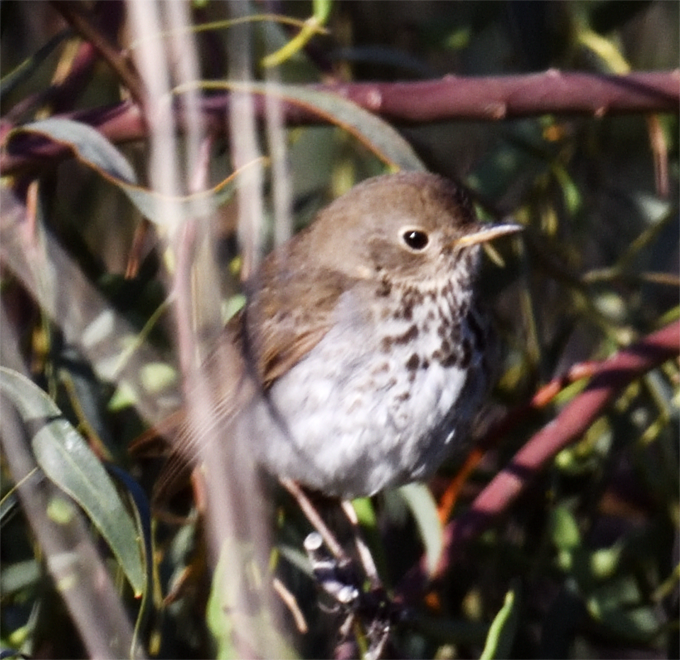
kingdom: Animalia
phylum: Chordata
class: Aves
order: Passeriformes
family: Turdidae
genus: Catharus
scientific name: Catharus guttatus
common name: Hermit thrush
